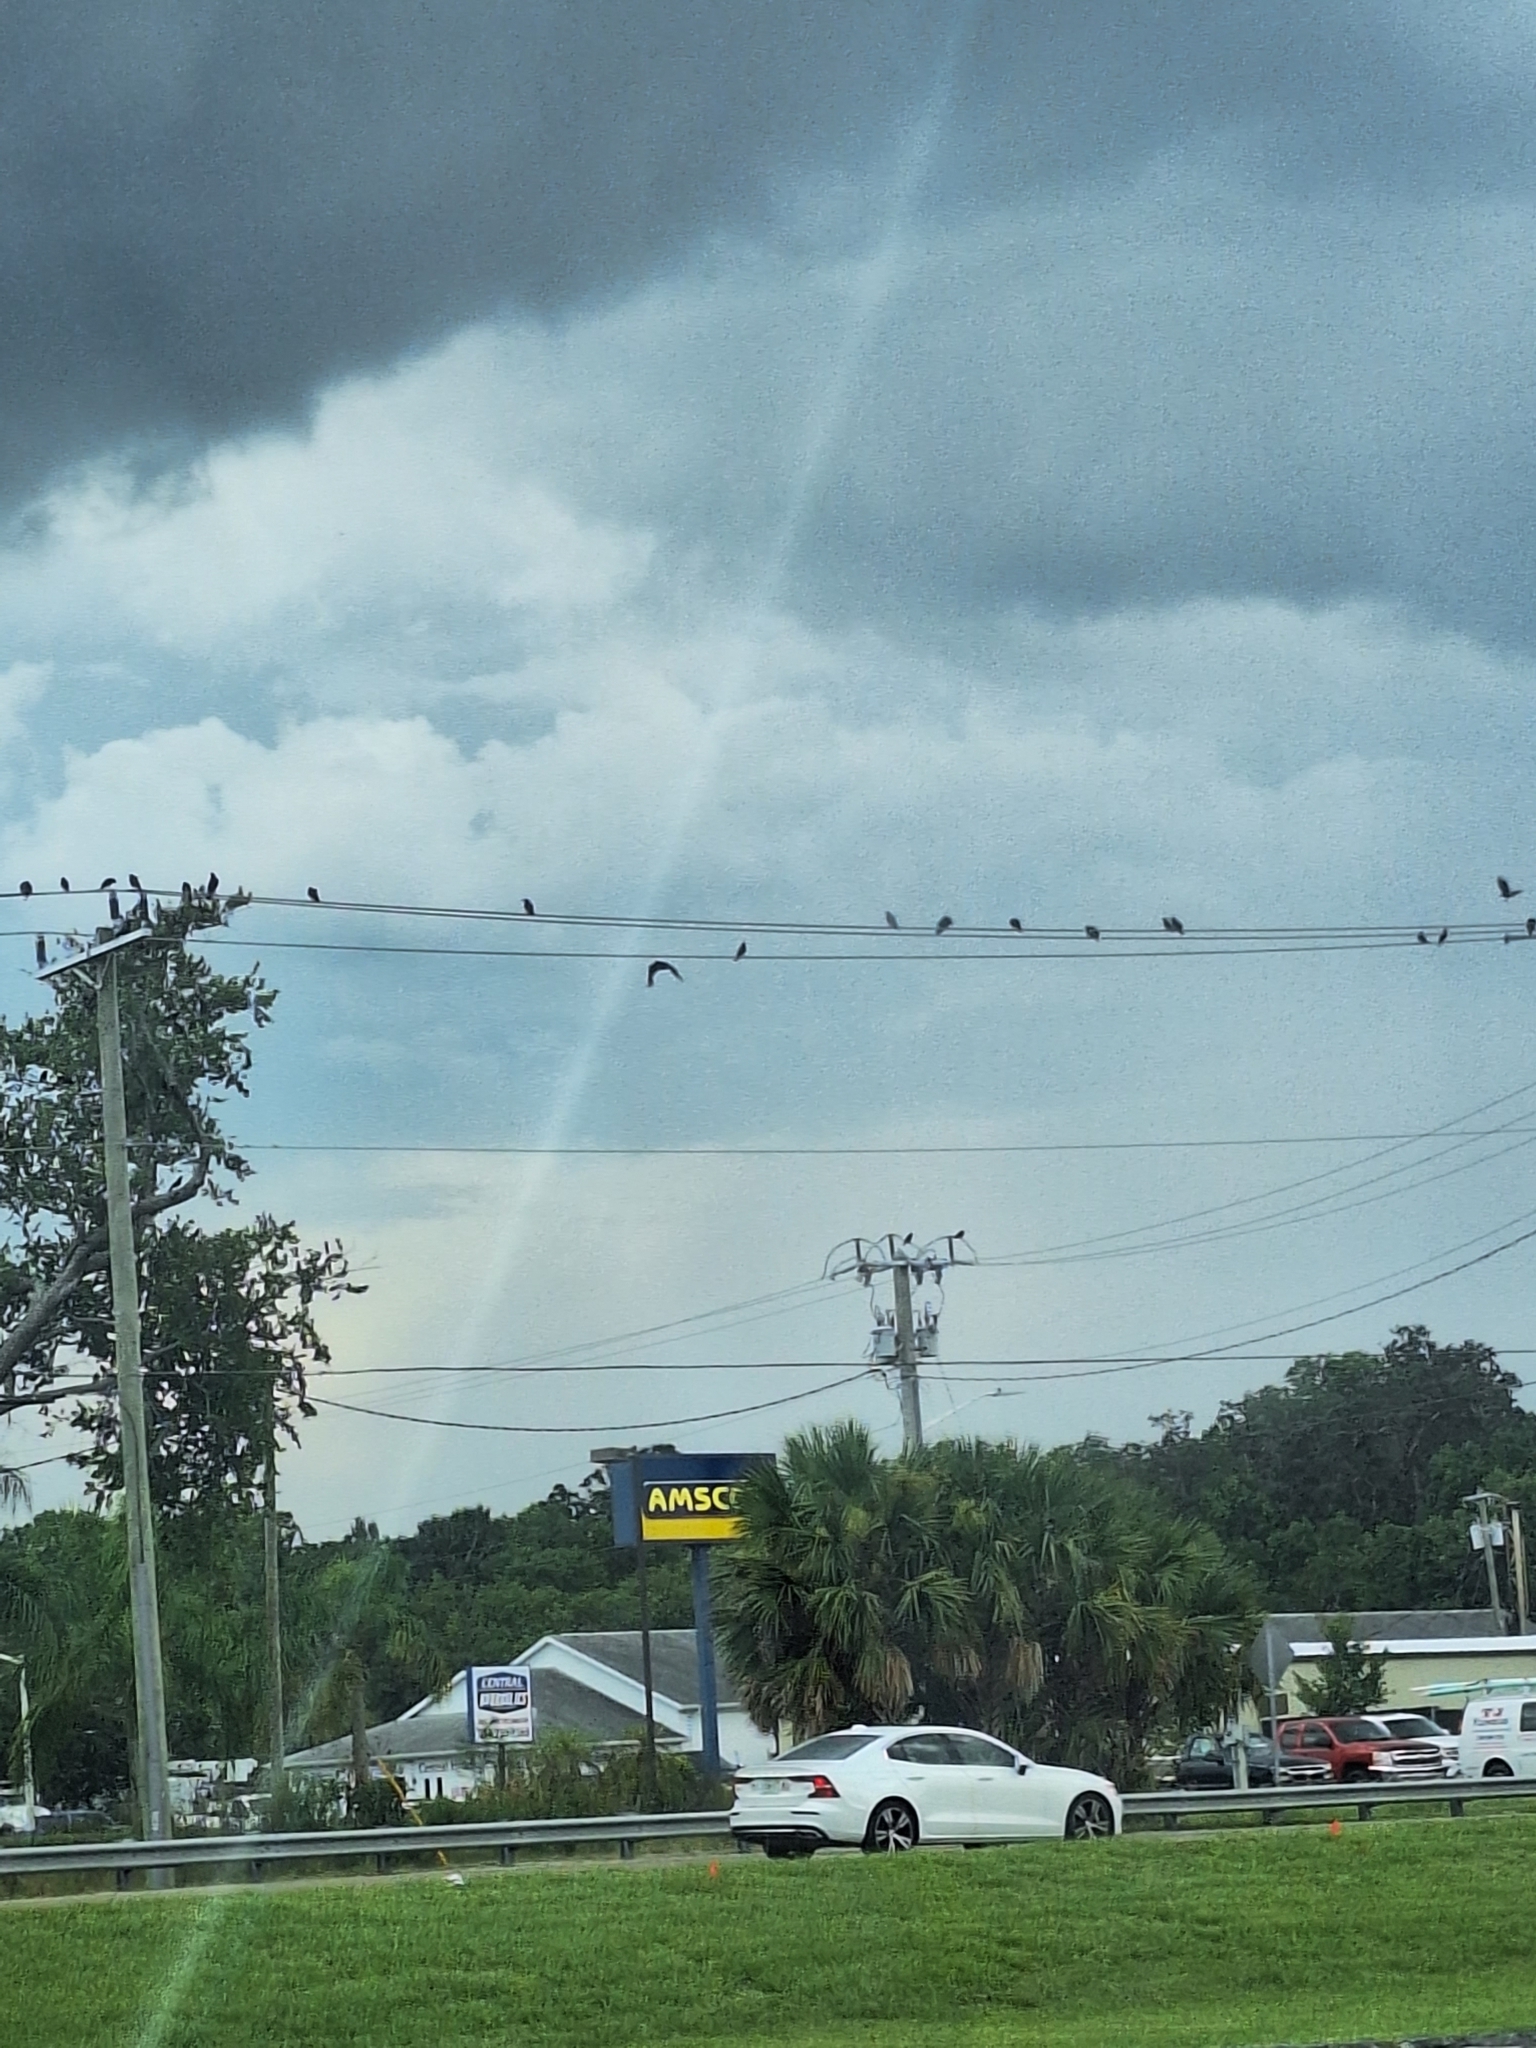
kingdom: Animalia
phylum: Chordata
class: Aves
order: Passeriformes
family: Corvidae
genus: Corvus
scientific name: Corvus ossifragus
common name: Fish crow
